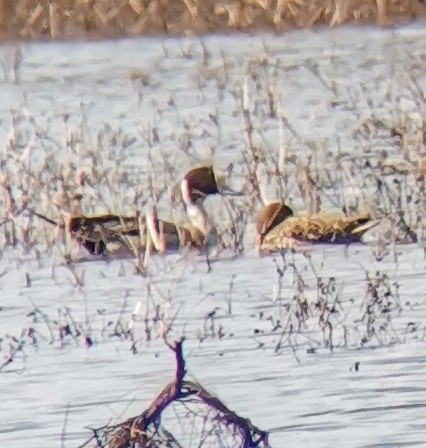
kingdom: Animalia
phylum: Chordata
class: Aves
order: Anseriformes
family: Anatidae
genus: Anas
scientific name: Anas acuta
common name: Northern pintail
